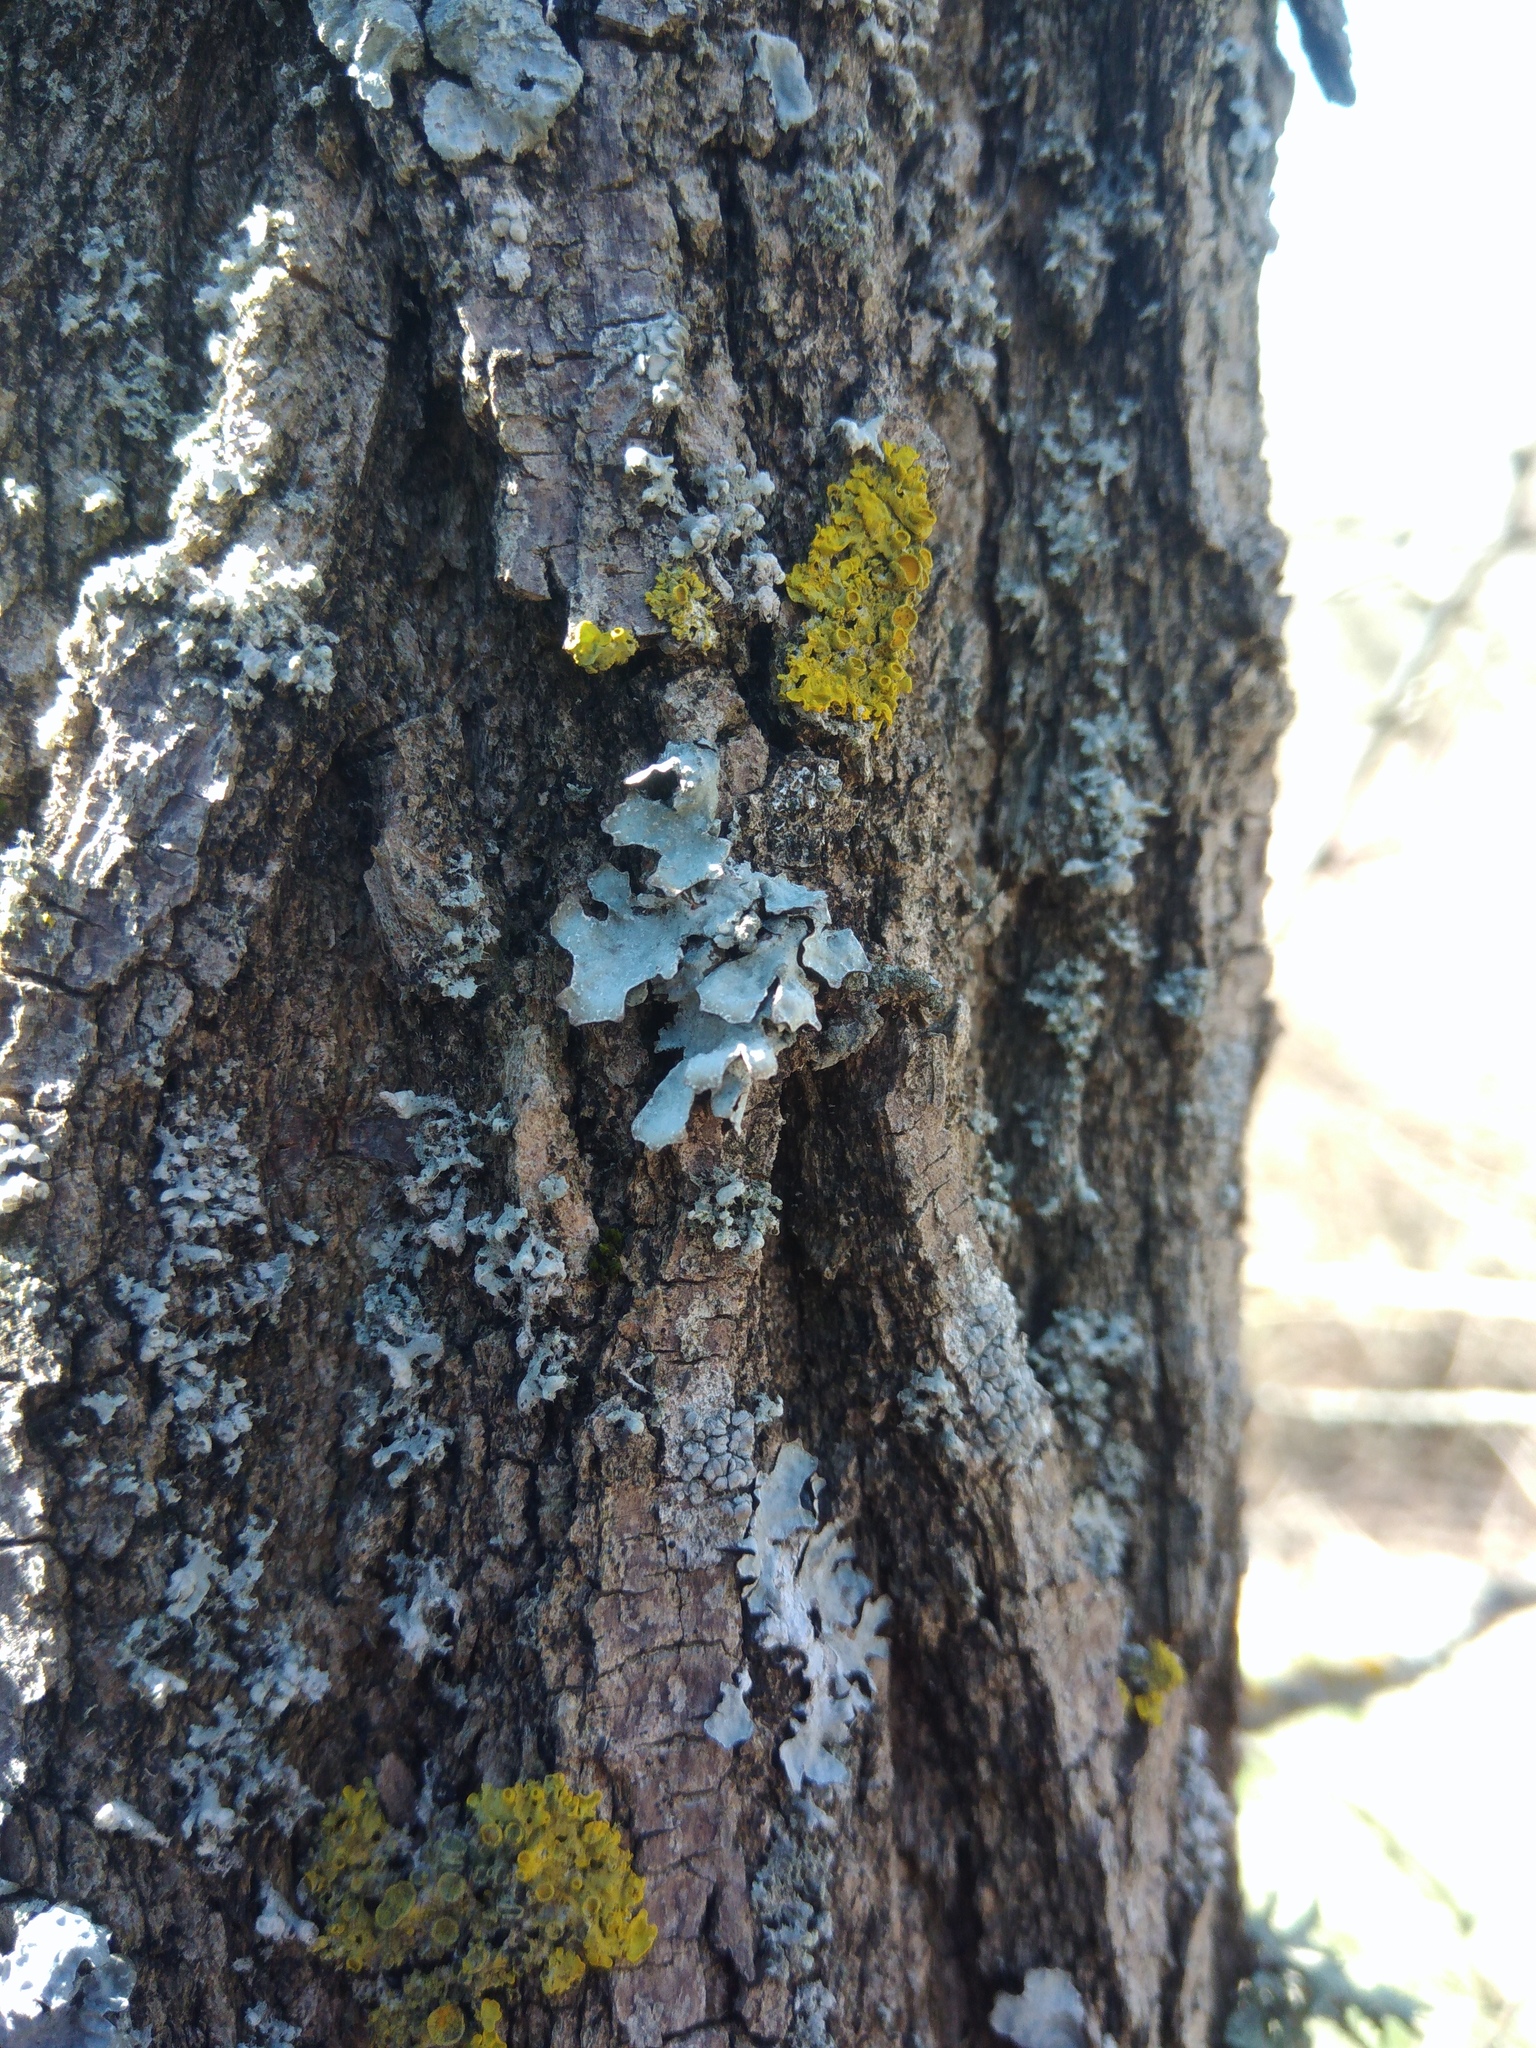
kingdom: Fungi
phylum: Ascomycota
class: Lecanoromycetes
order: Lecanorales
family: Parmeliaceae
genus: Parmelia
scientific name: Parmelia sulcata
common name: Netted shield lichen
